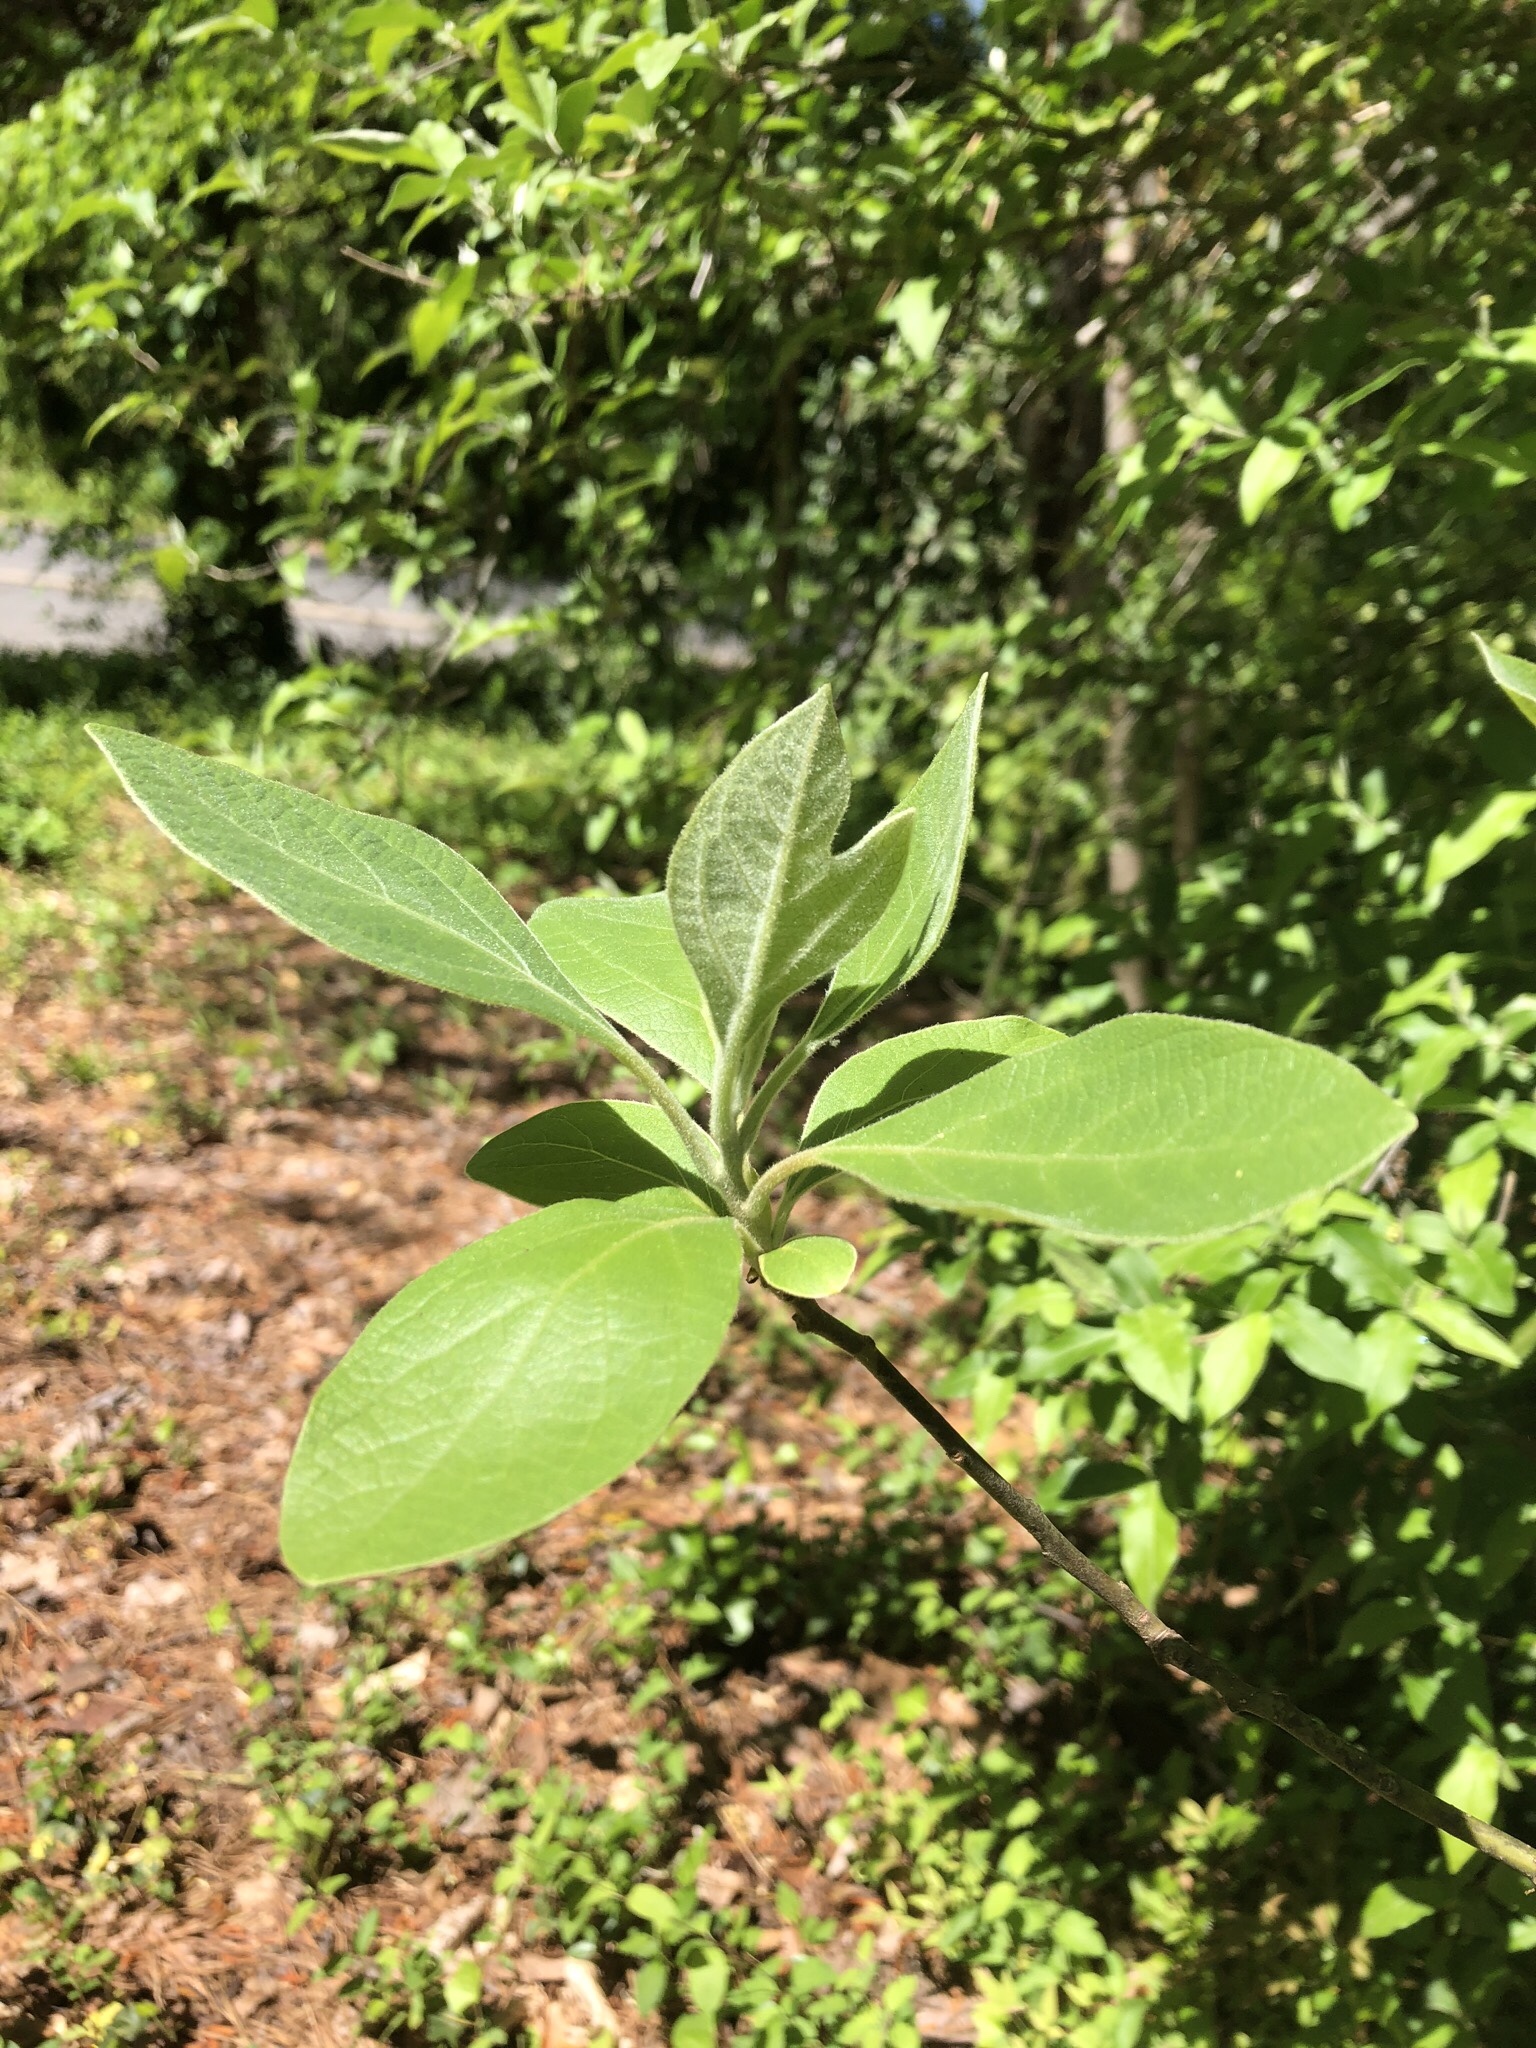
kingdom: Plantae
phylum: Tracheophyta
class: Magnoliopsida
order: Laurales
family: Lauraceae
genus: Sassafras
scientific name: Sassafras albidum
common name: Sassafras
